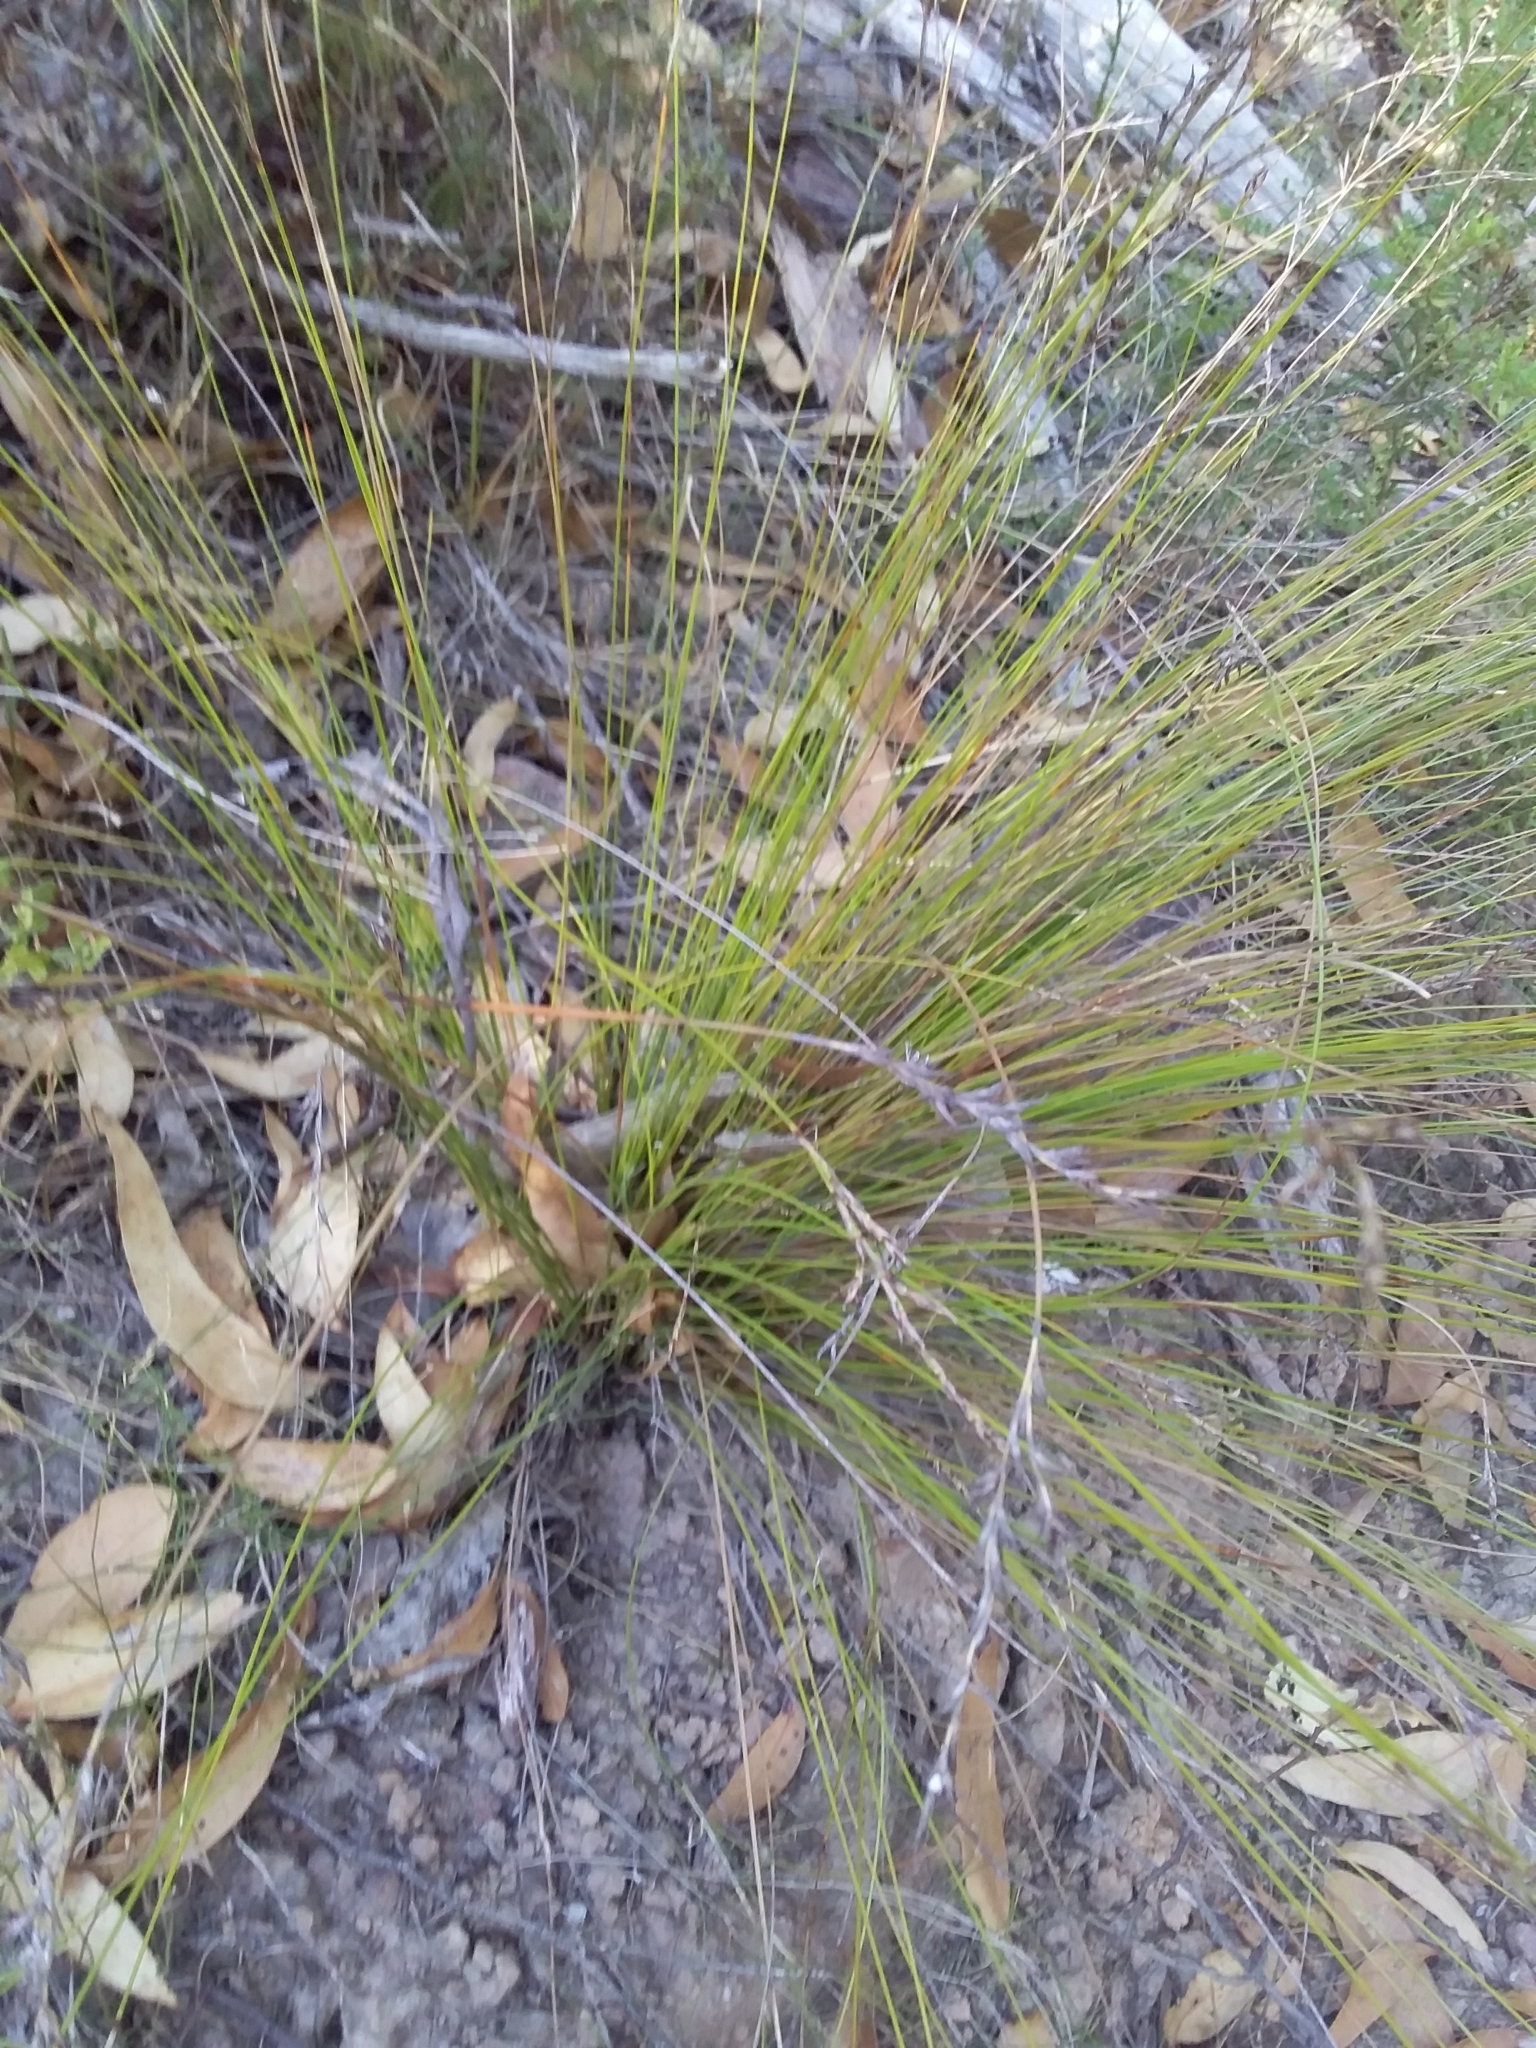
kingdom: Plantae
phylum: Tracheophyta
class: Liliopsida
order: Poales
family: Cyperaceae
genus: Lepidosperma
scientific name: Lepidosperma semiteres
